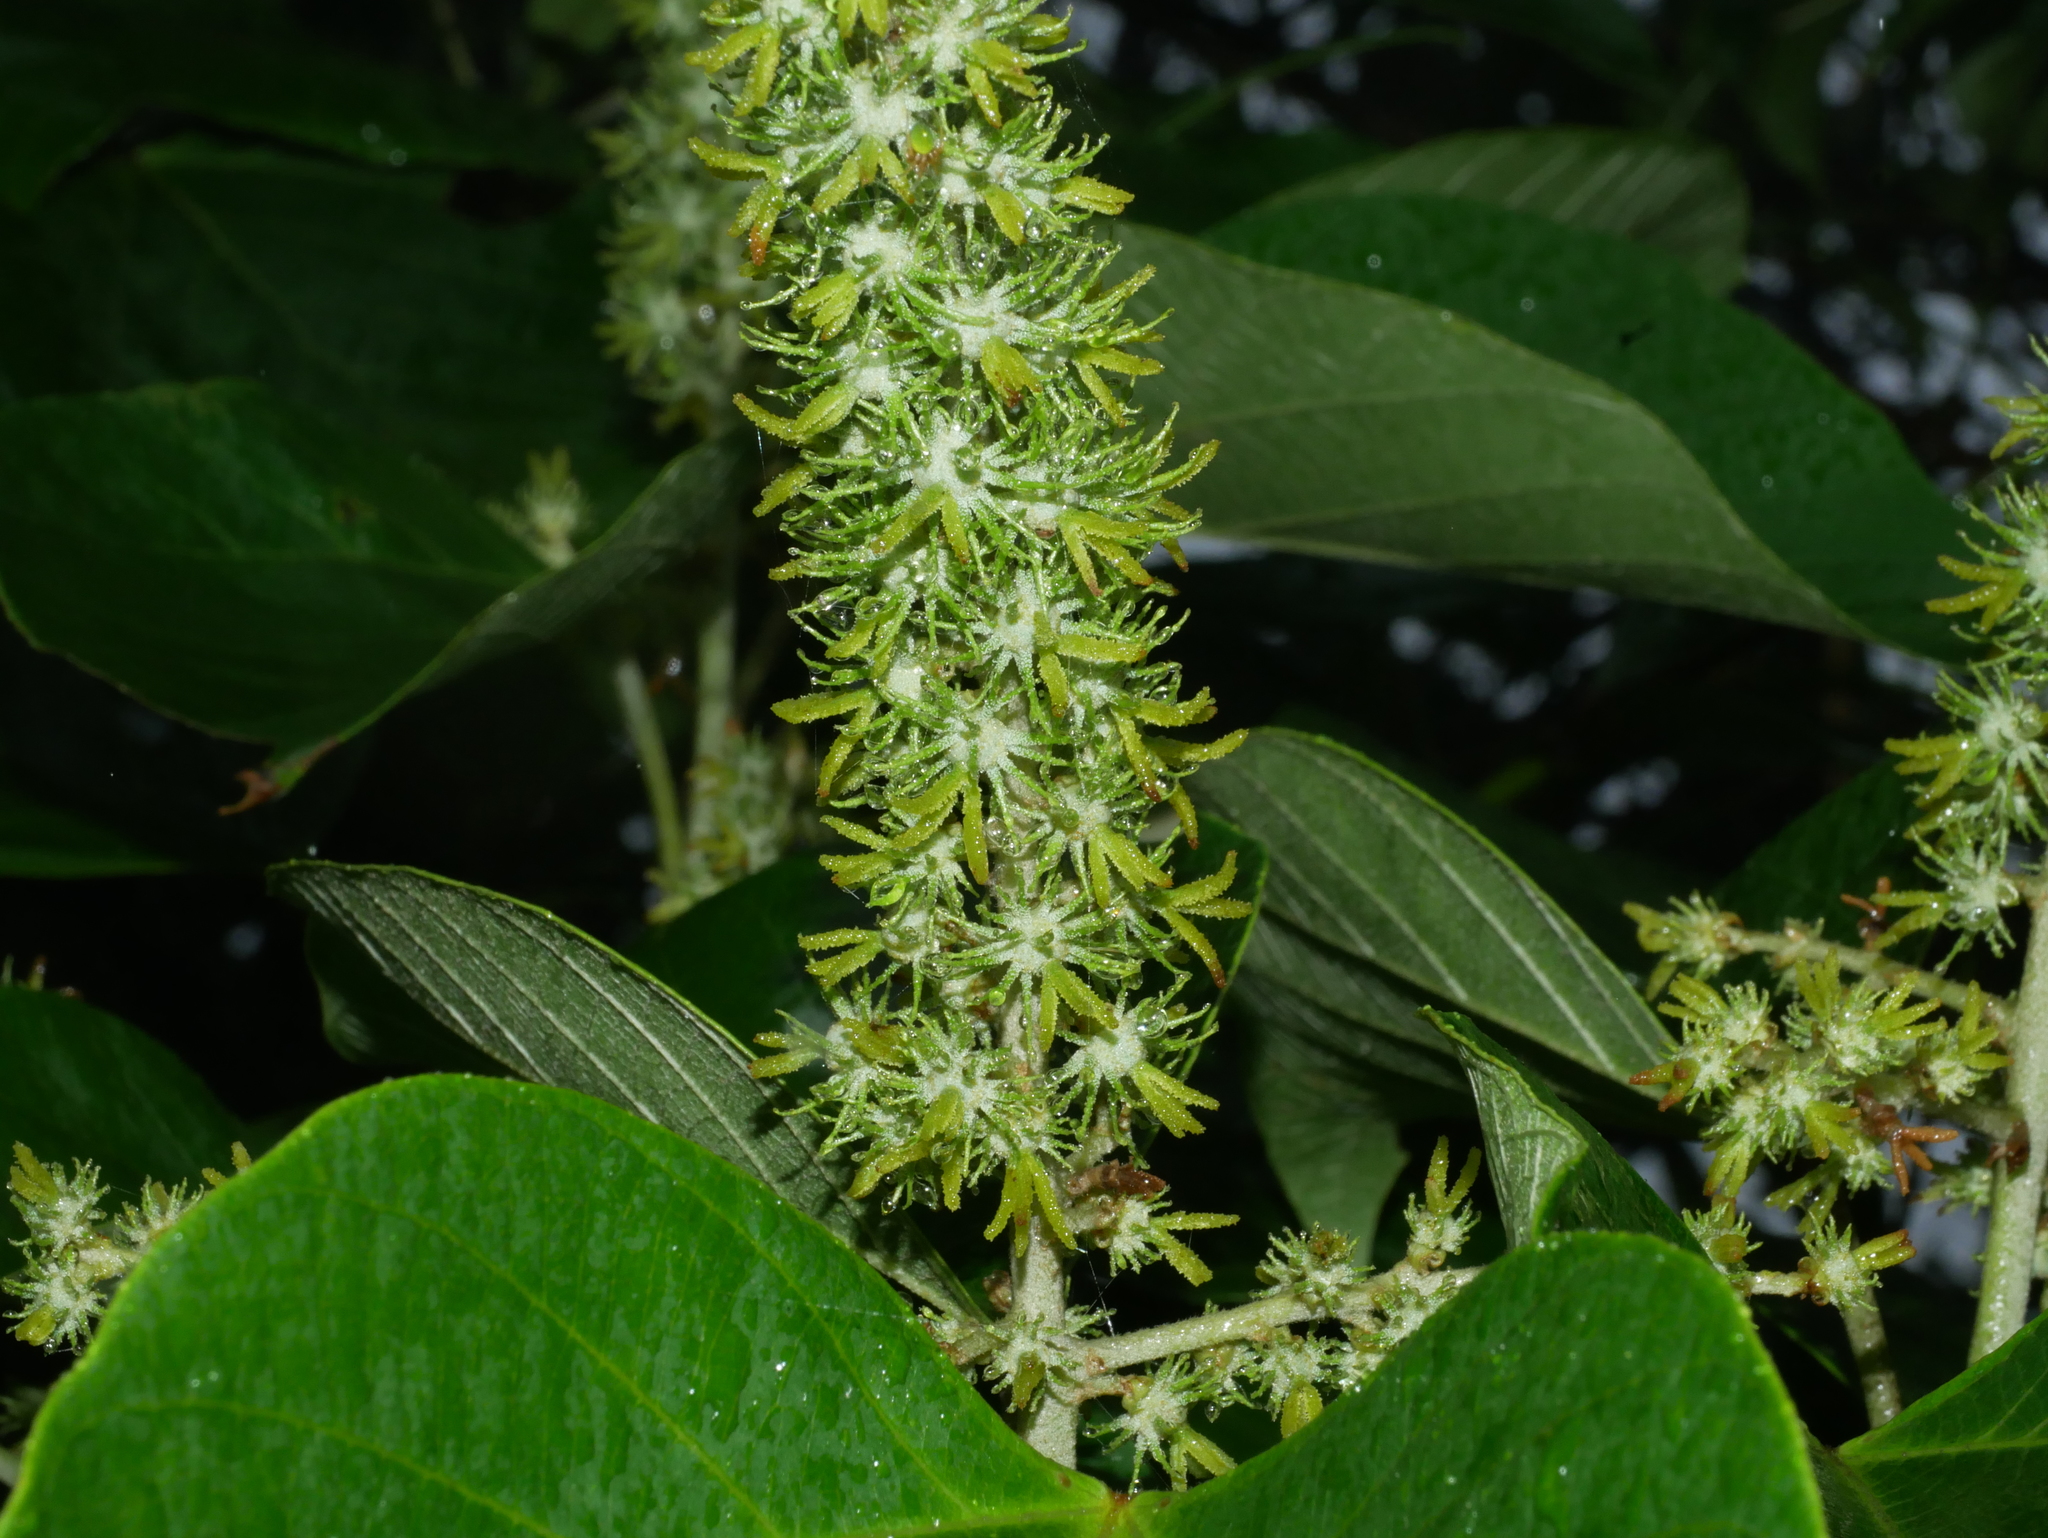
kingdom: Plantae
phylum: Tracheophyta
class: Magnoliopsida
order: Malpighiales
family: Euphorbiaceae
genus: Mallotus
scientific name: Mallotus japonicus
